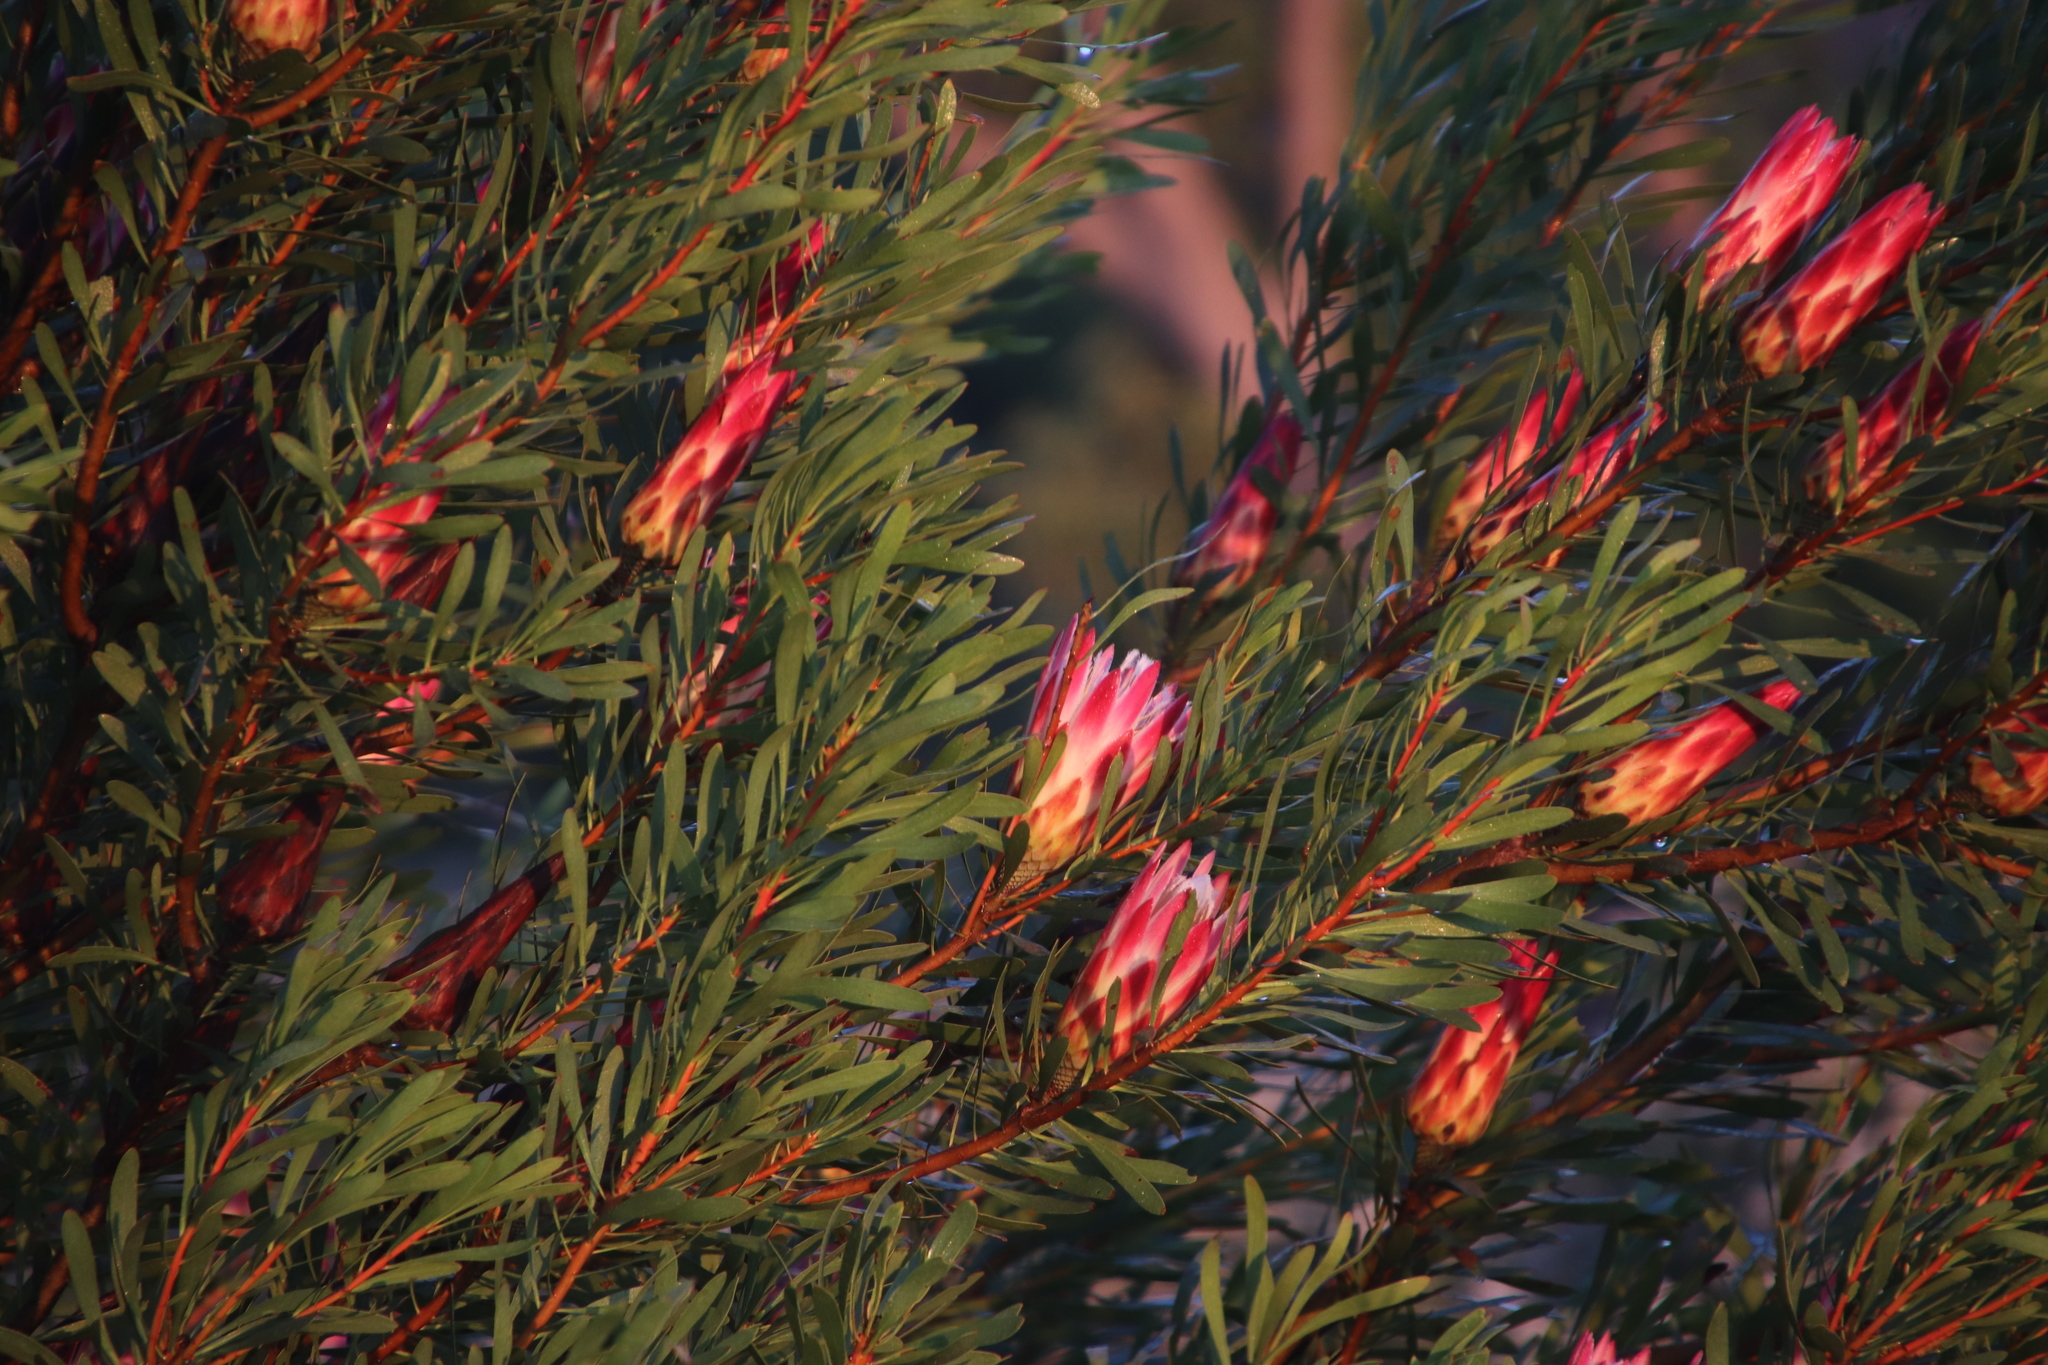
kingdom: Plantae
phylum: Tracheophyta
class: Magnoliopsida
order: Proteales
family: Proteaceae
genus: Protea
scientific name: Protea repens
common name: Sugarbush
